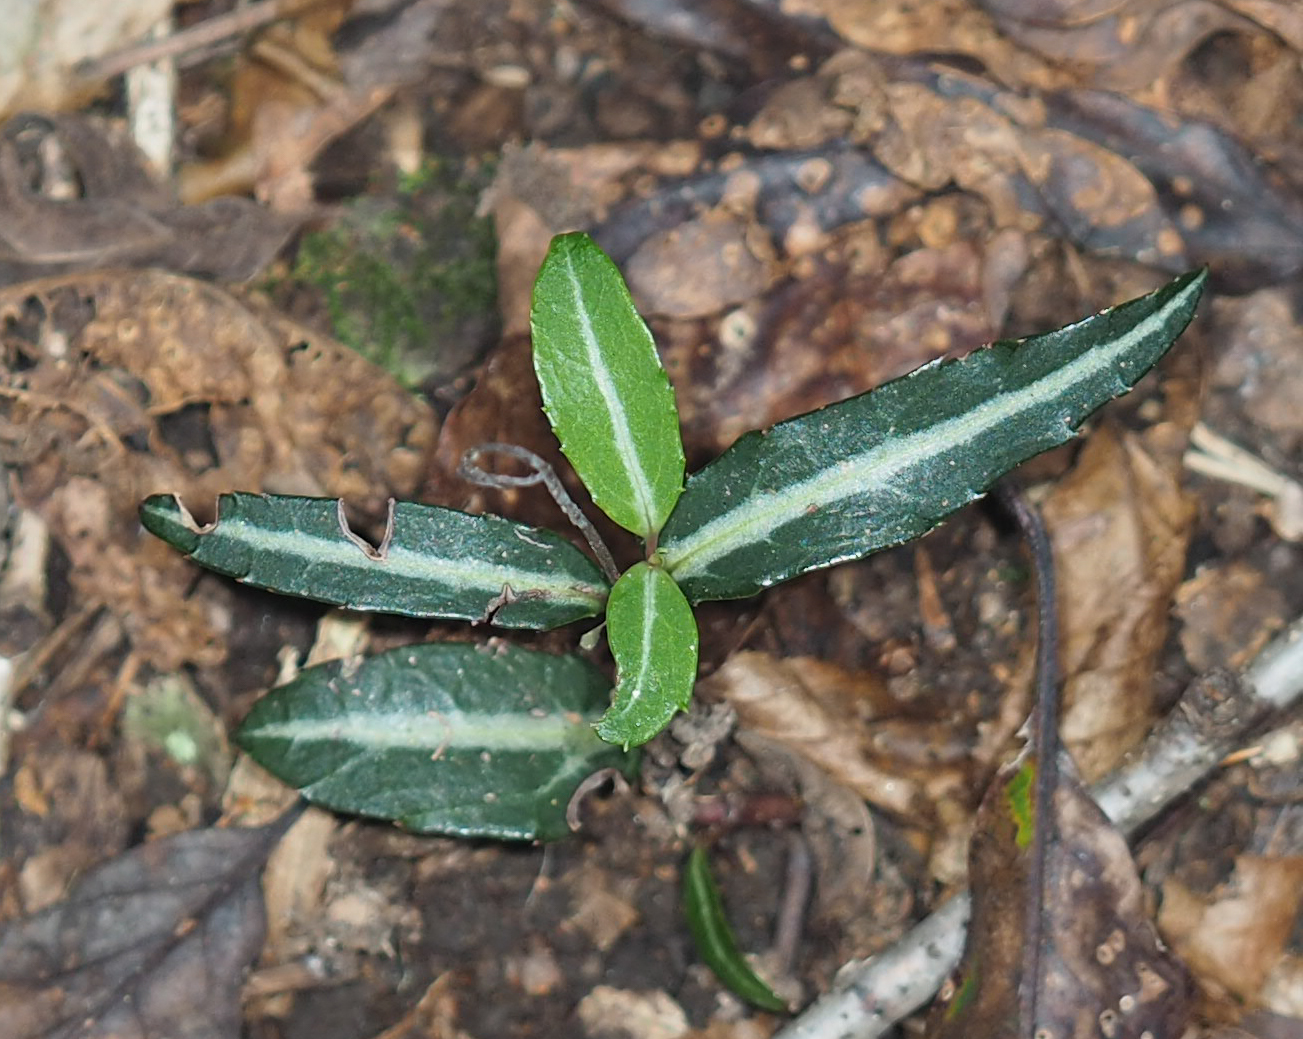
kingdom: Plantae
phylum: Tracheophyta
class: Magnoliopsida
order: Ericales
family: Ericaceae
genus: Chimaphila
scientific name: Chimaphila maculata
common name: Spotted pipsissewa
